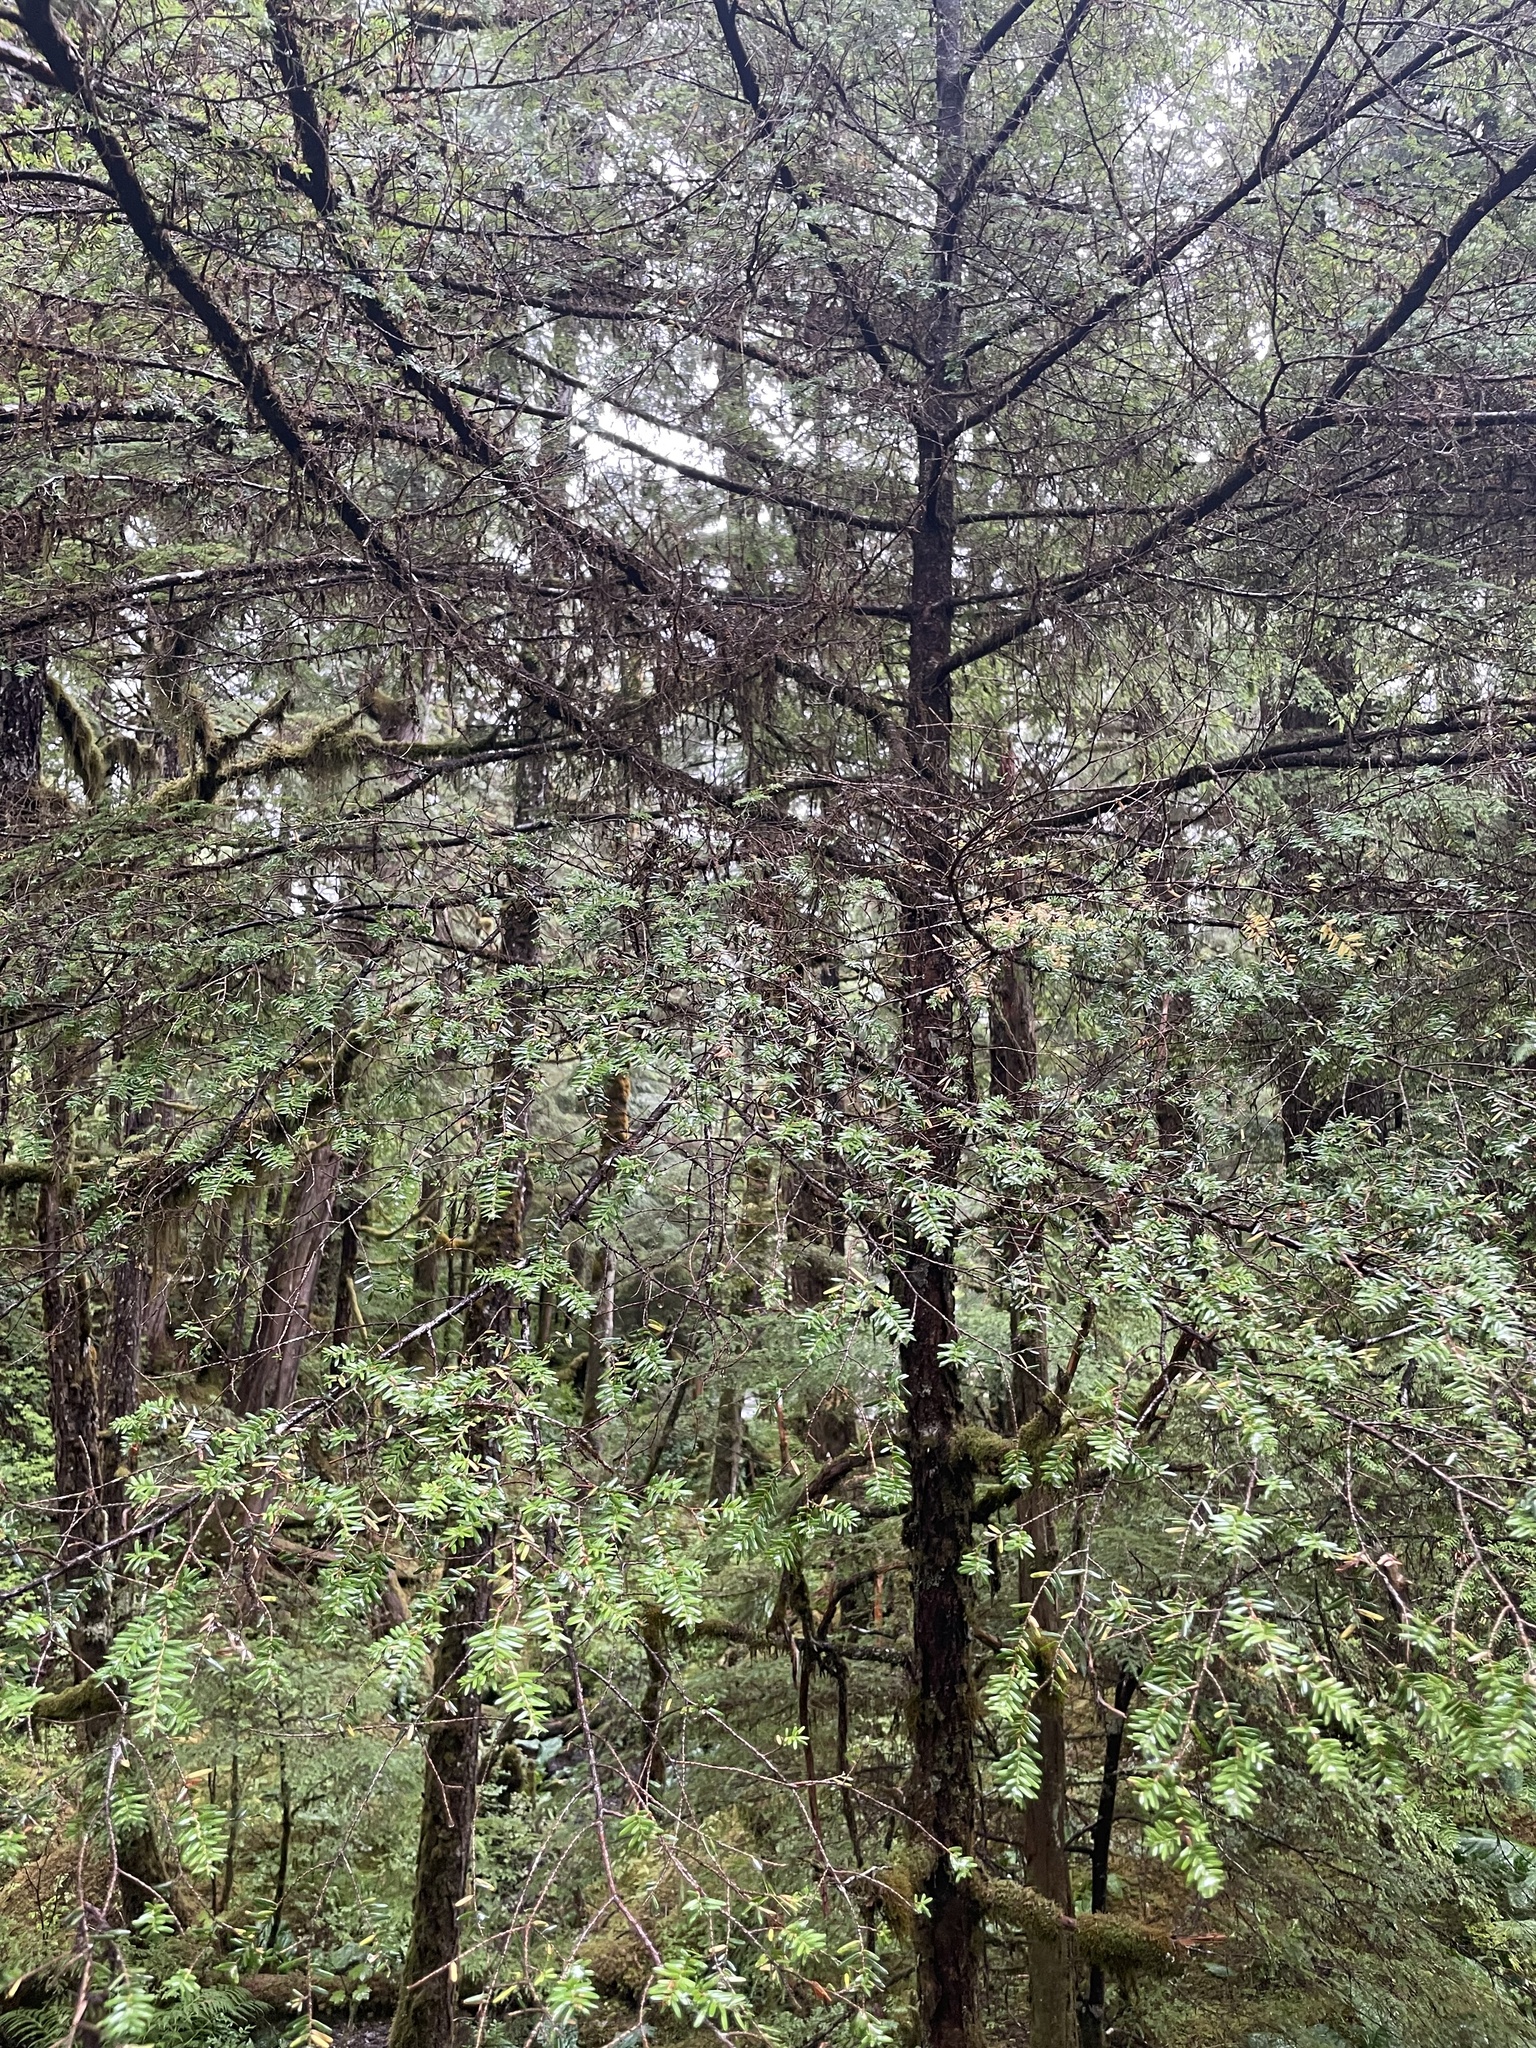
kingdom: Plantae
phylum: Tracheophyta
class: Pinopsida
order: Pinales
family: Pinaceae
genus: Tsuga
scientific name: Tsuga heterophylla
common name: Western hemlock
